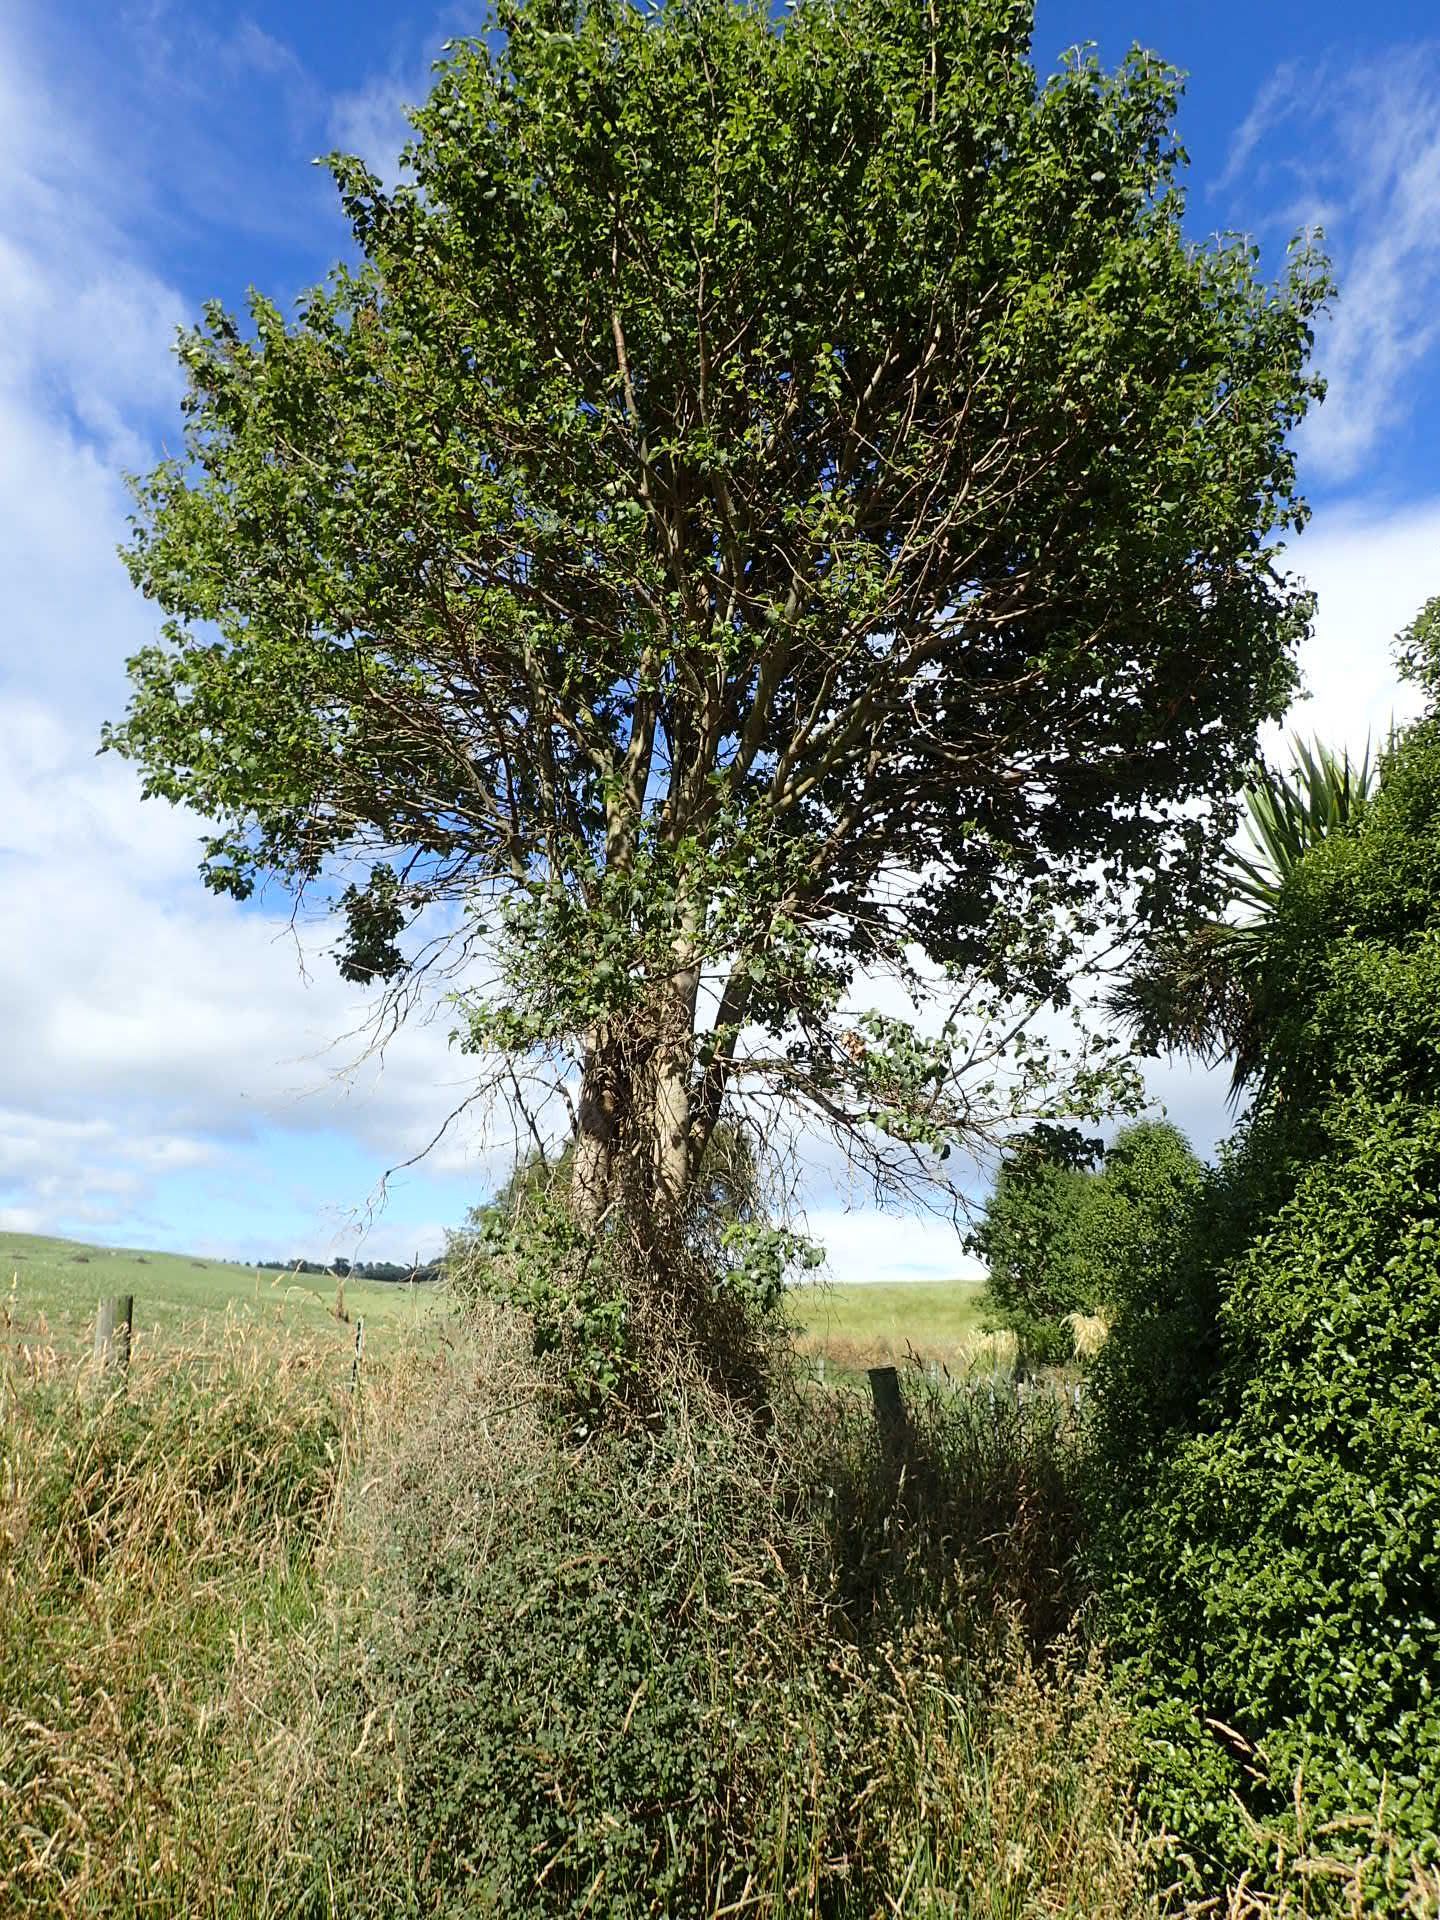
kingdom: Plantae
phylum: Tracheophyta
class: Magnoliopsida
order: Malvales
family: Malvaceae
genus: Plagianthus
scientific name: Plagianthus regius
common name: Manatu
